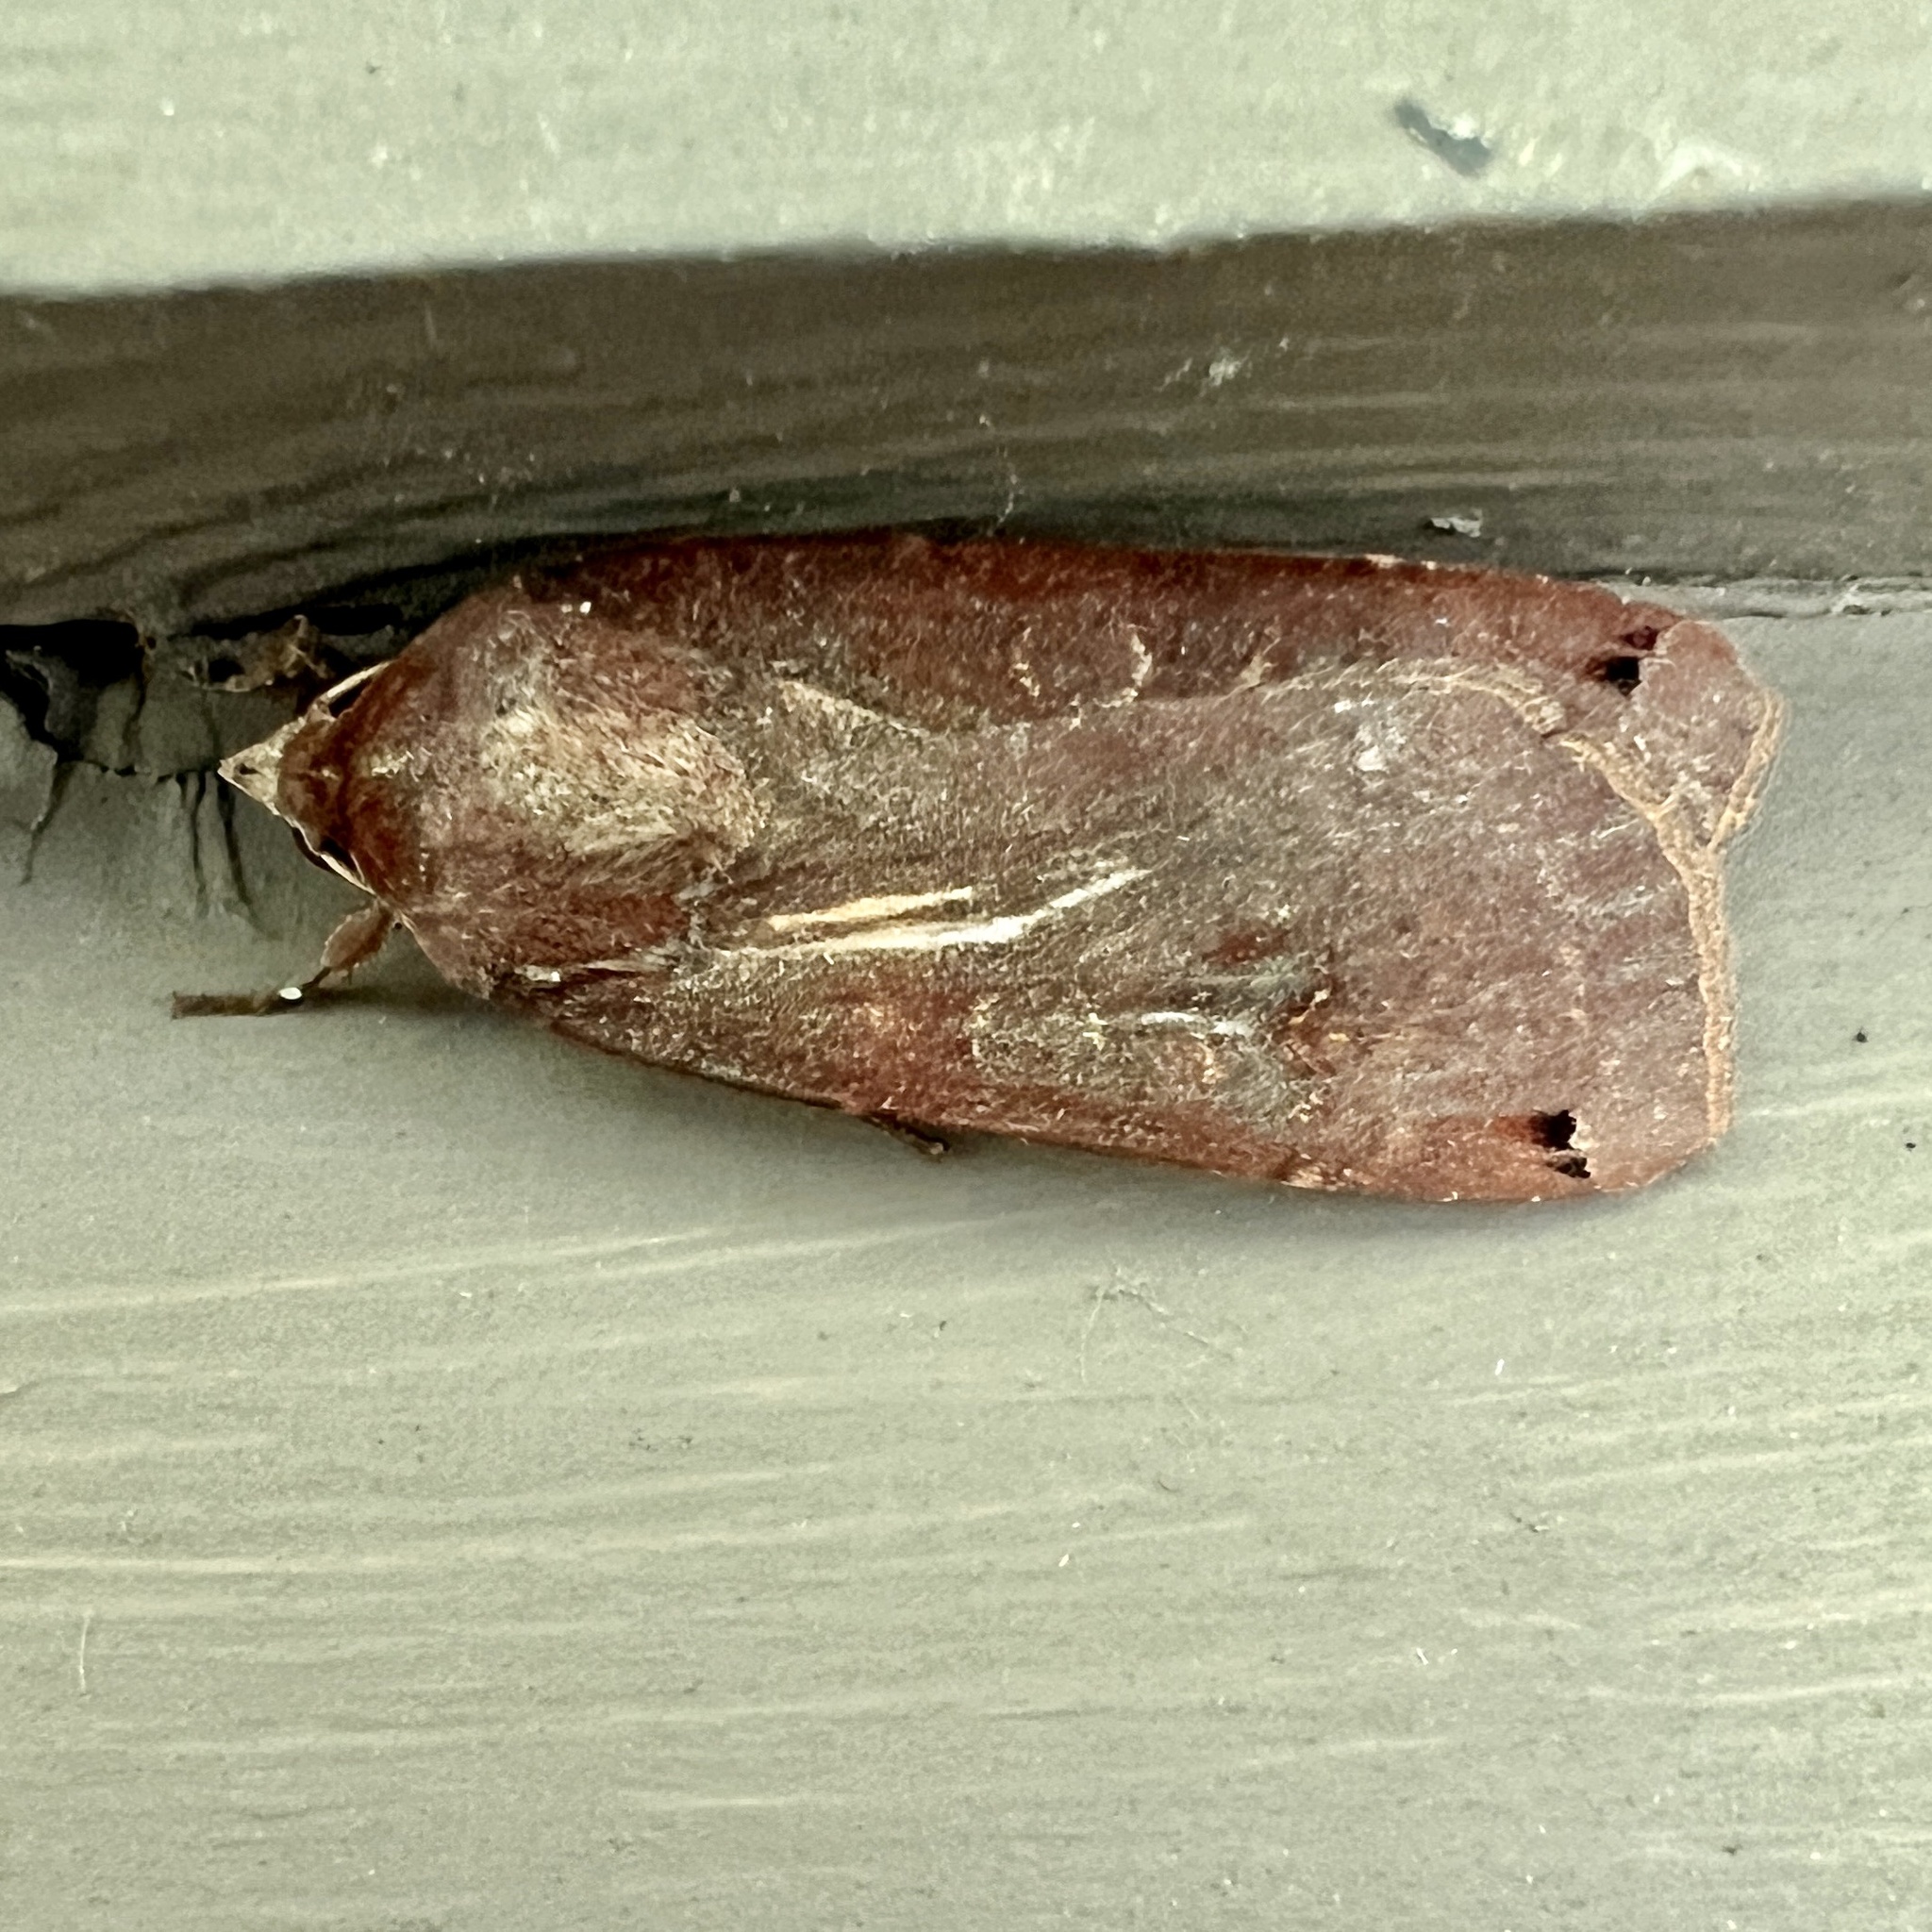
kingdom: Animalia
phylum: Arthropoda
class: Insecta
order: Lepidoptera
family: Noctuidae
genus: Noctua
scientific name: Noctua pronuba
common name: Large yellow underwing
